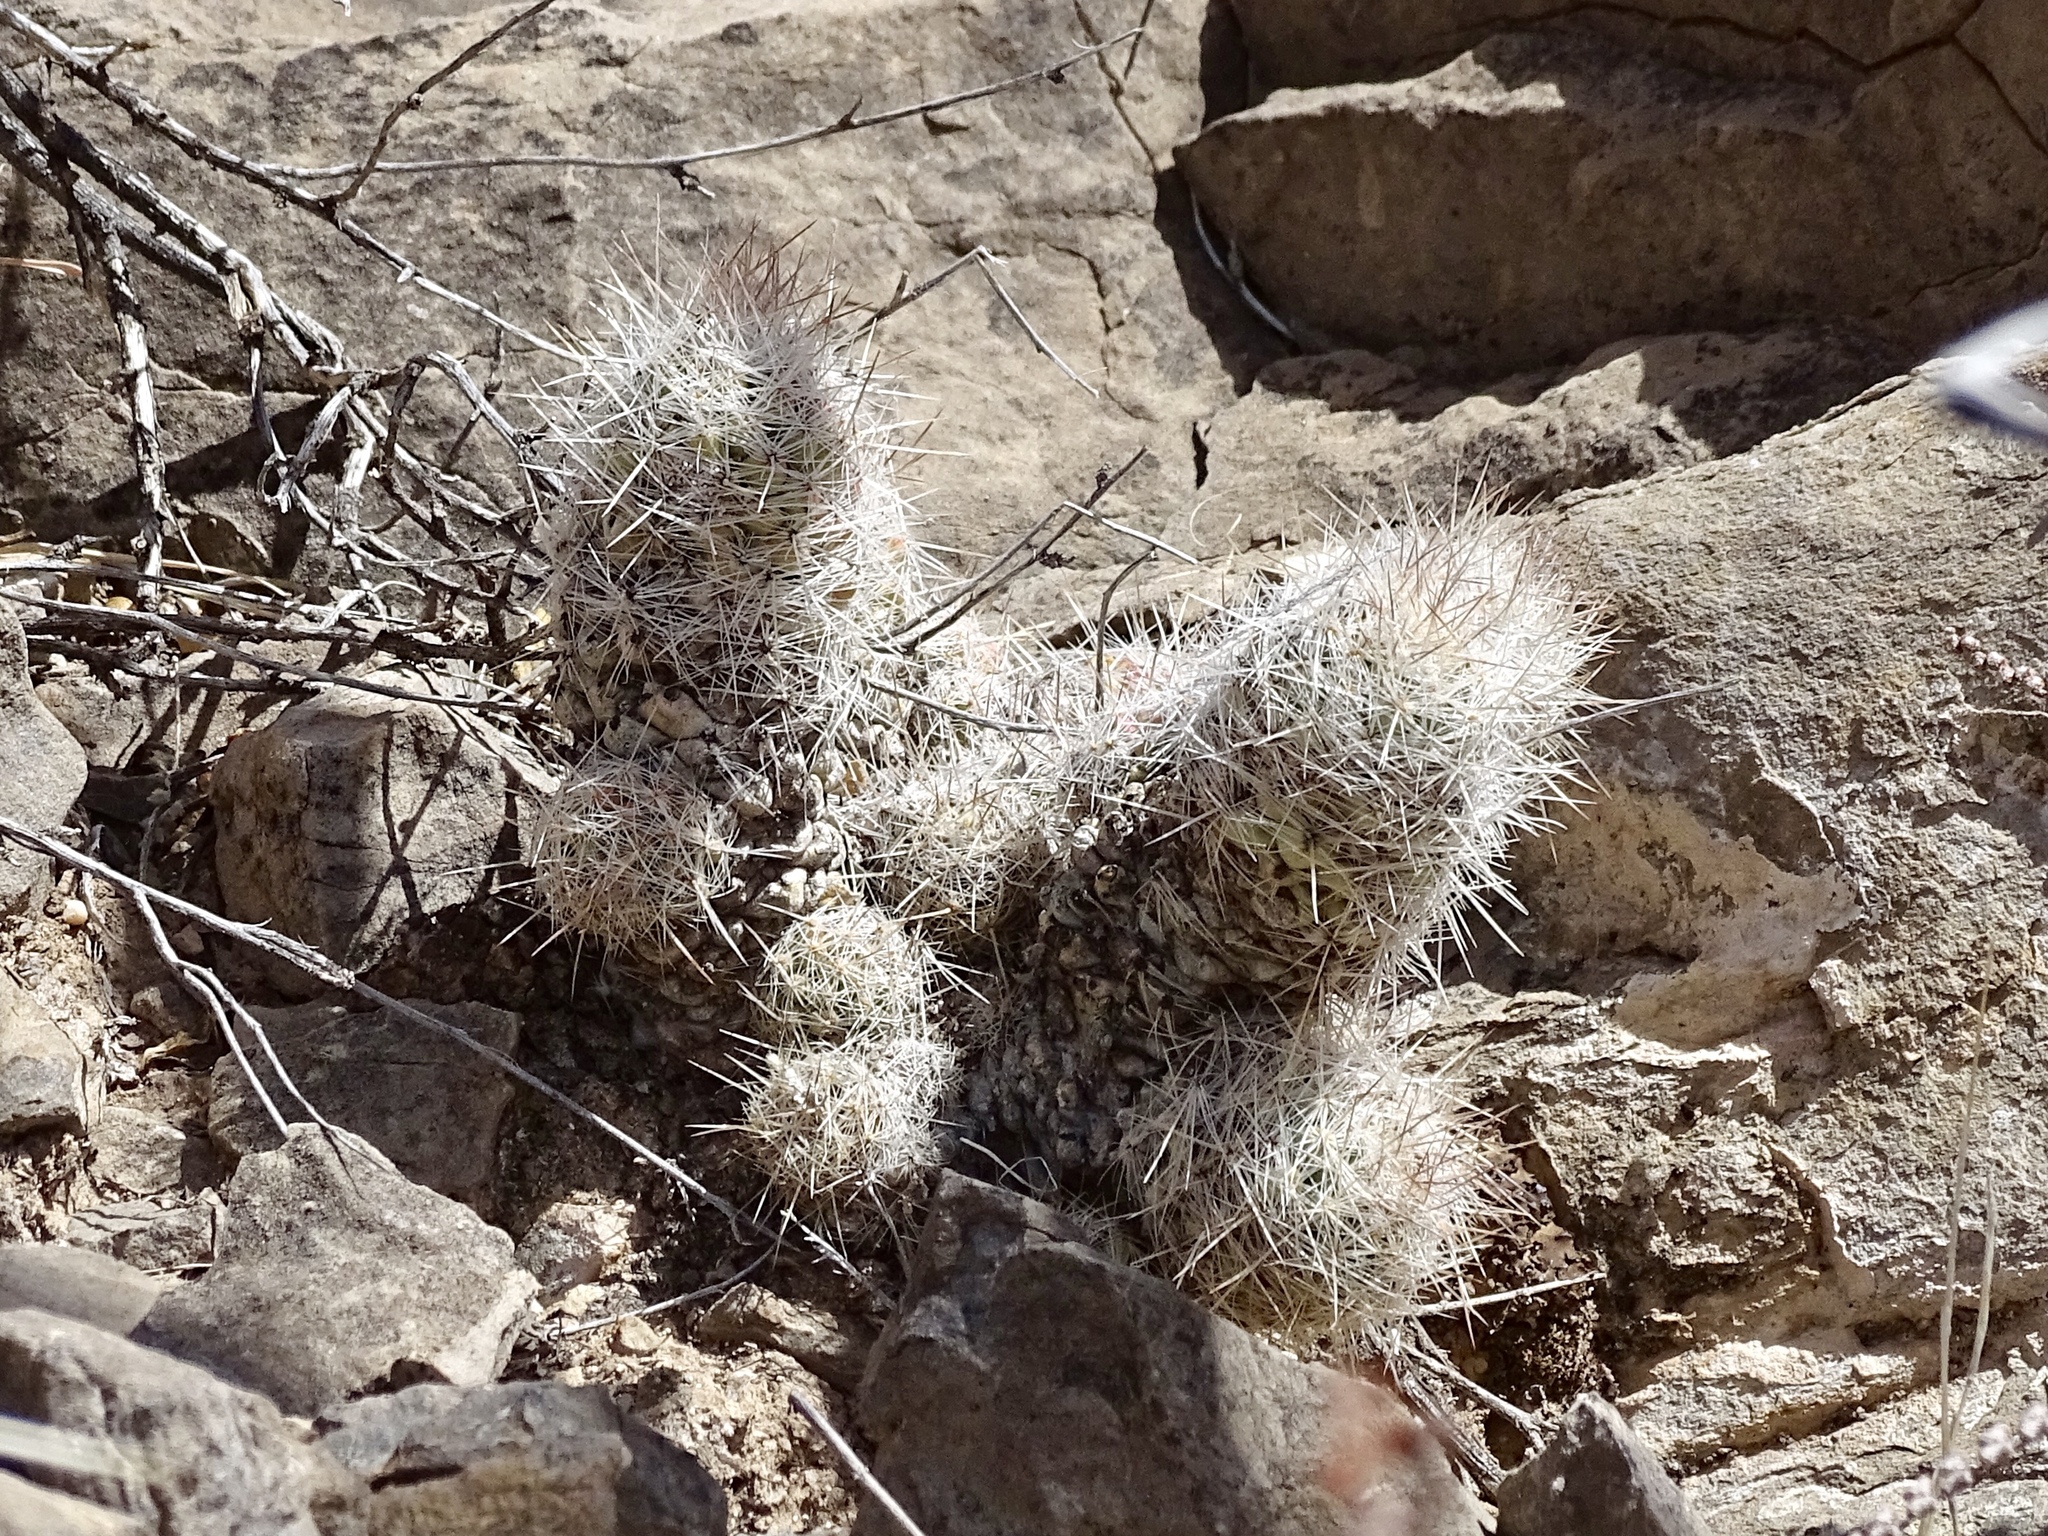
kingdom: Plantae
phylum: Tracheophyta
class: Magnoliopsida
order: Caryophyllales
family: Cactaceae
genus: Pelecyphora
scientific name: Pelecyphora tuberculosa
